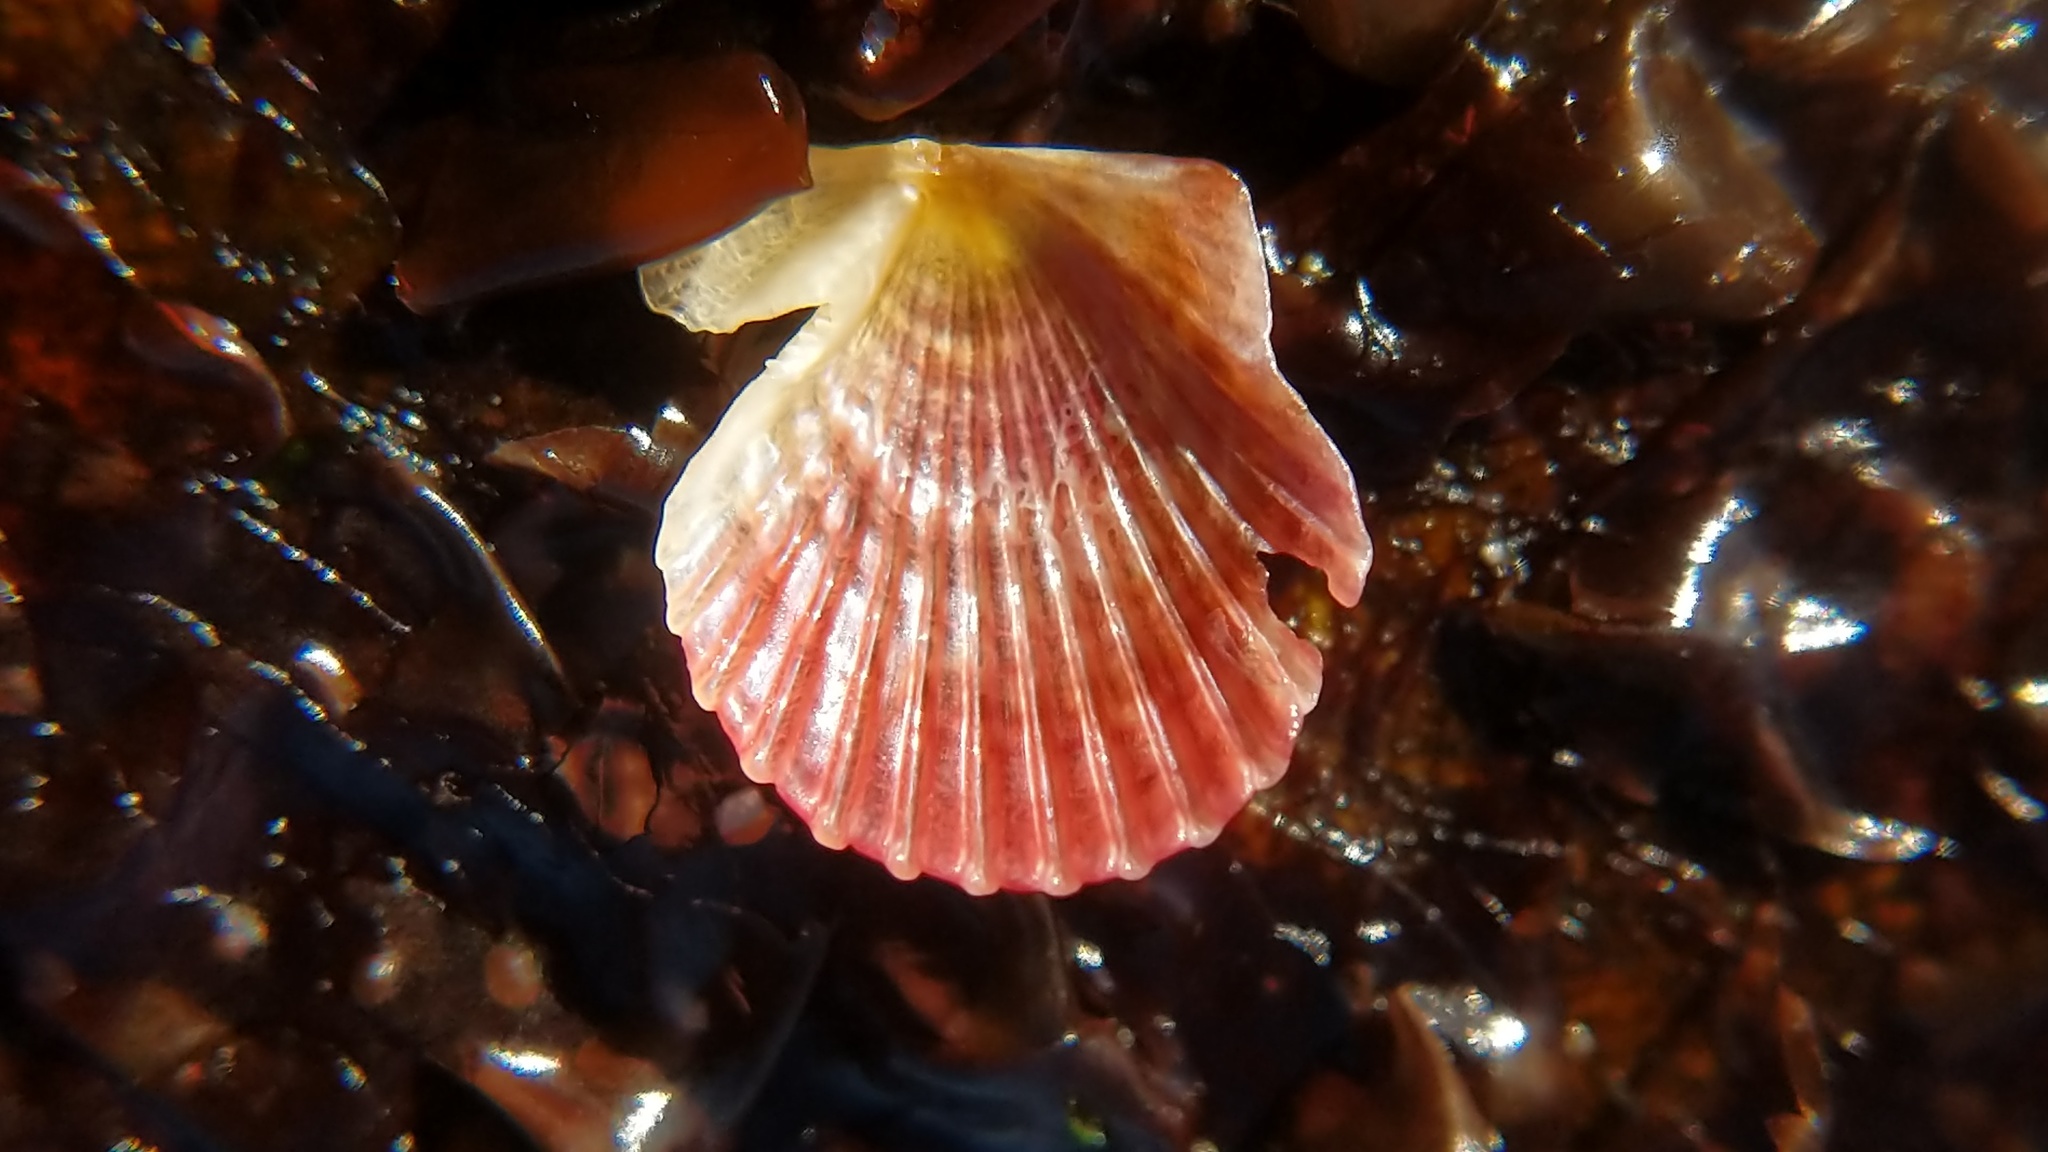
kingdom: Animalia
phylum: Mollusca
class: Bivalvia
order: Pectinida
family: Pectinidae
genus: Crassadoma
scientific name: Crassadoma gigantea
